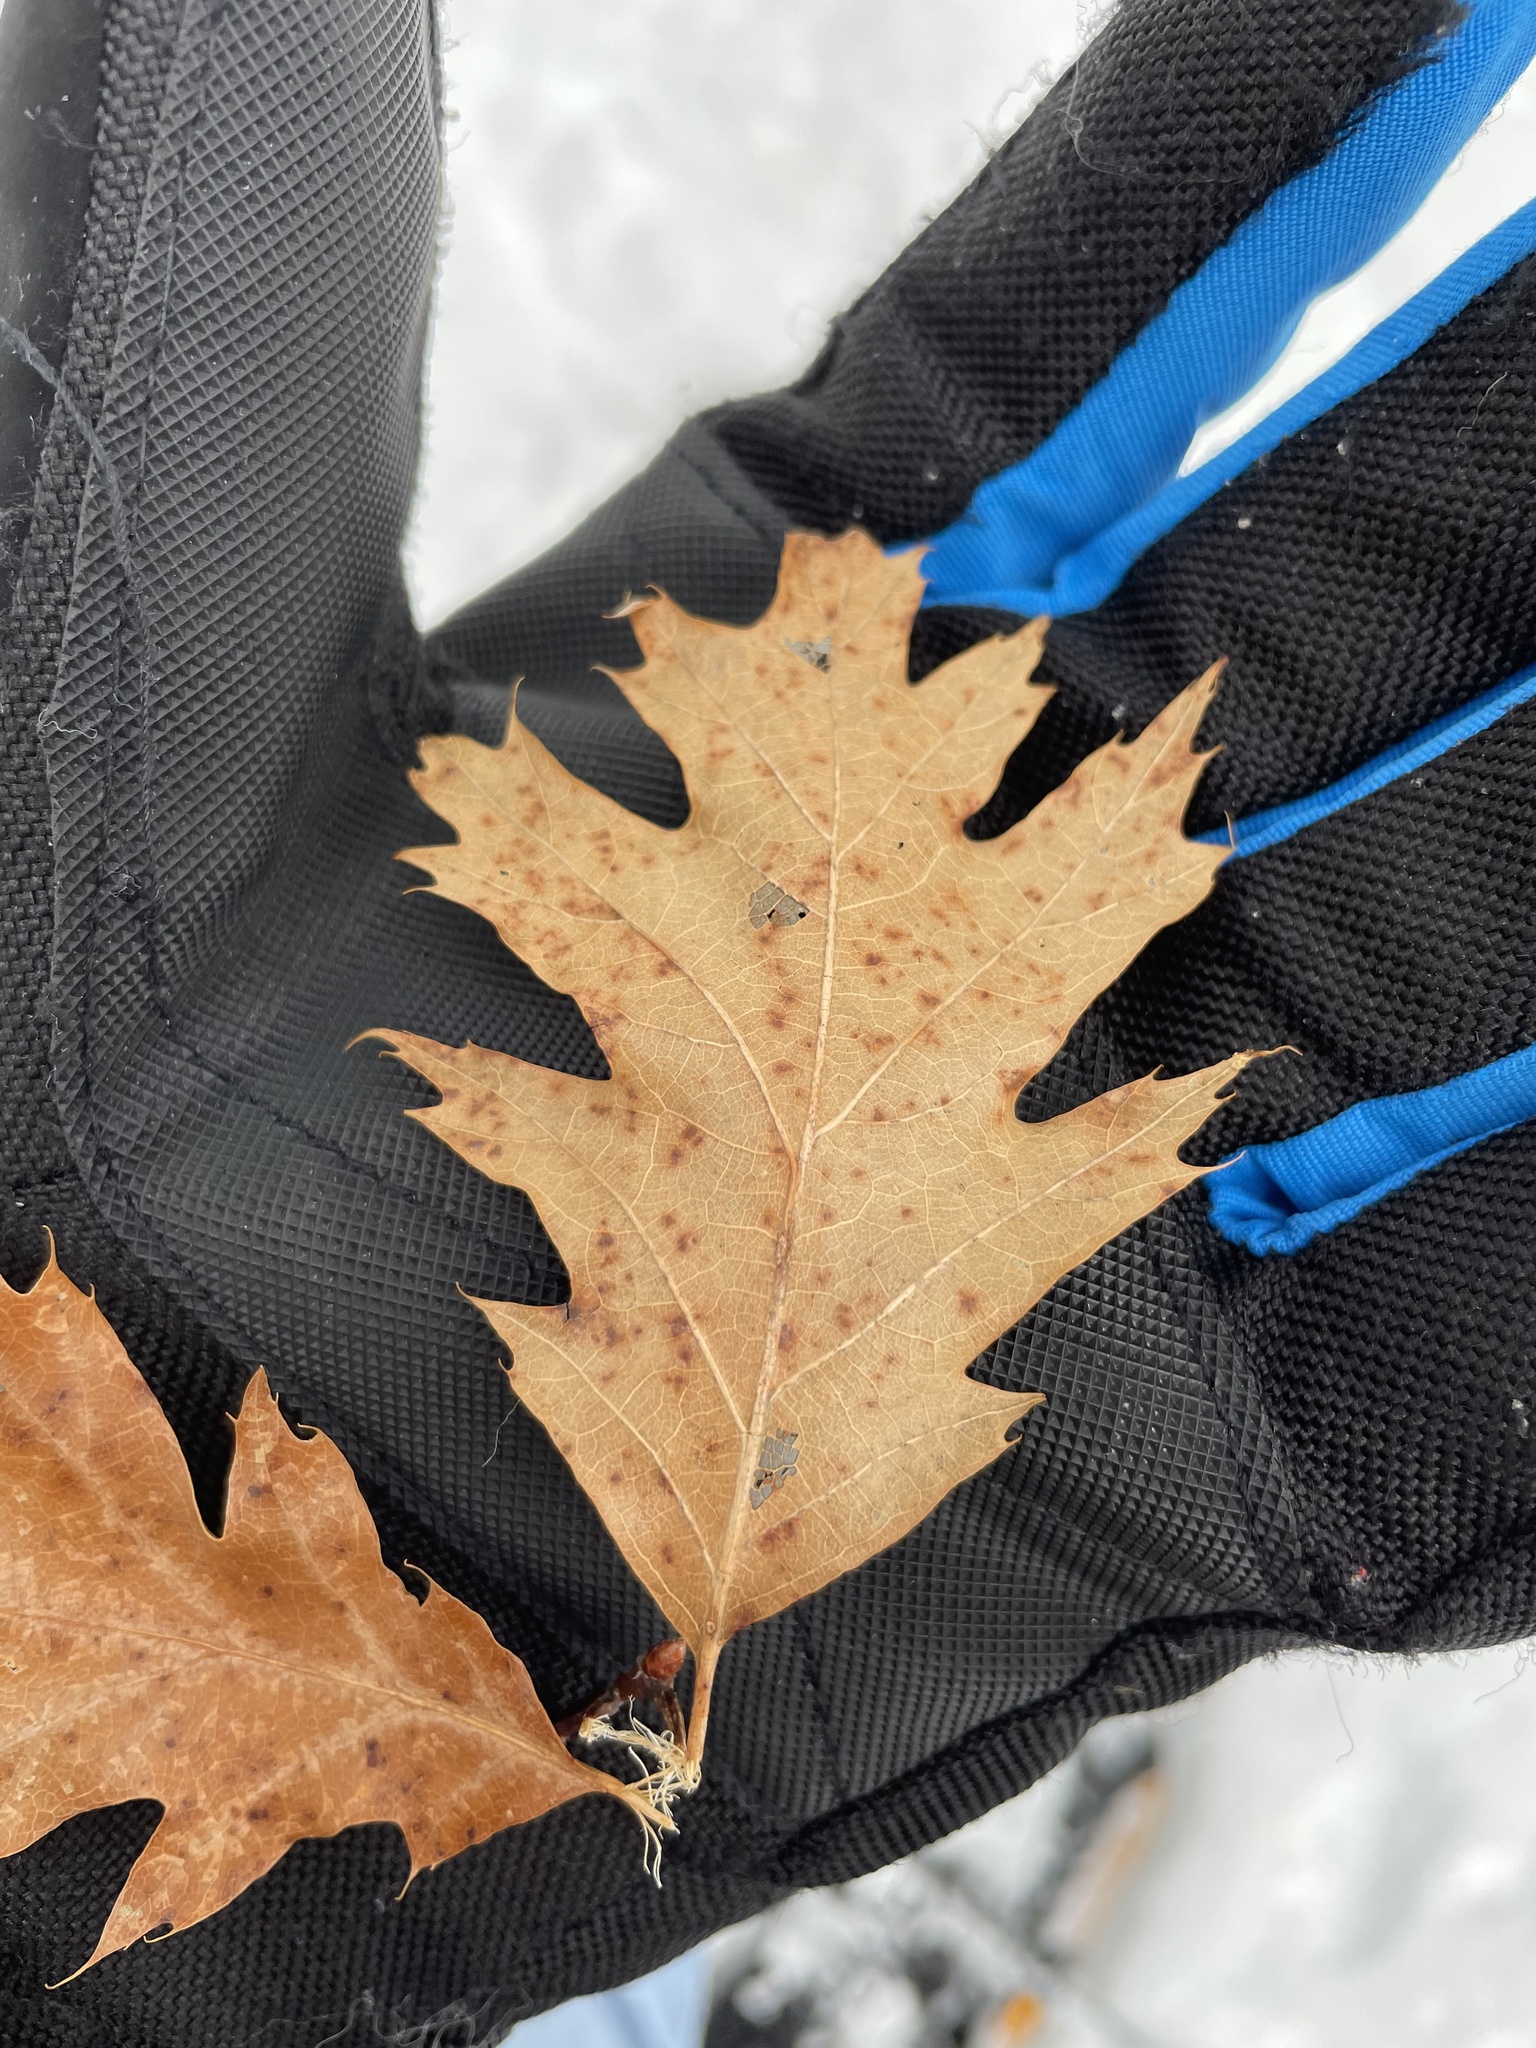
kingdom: Plantae
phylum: Tracheophyta
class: Magnoliopsida
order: Fagales
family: Fagaceae
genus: Quercus
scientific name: Quercus rubra
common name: Red oak
